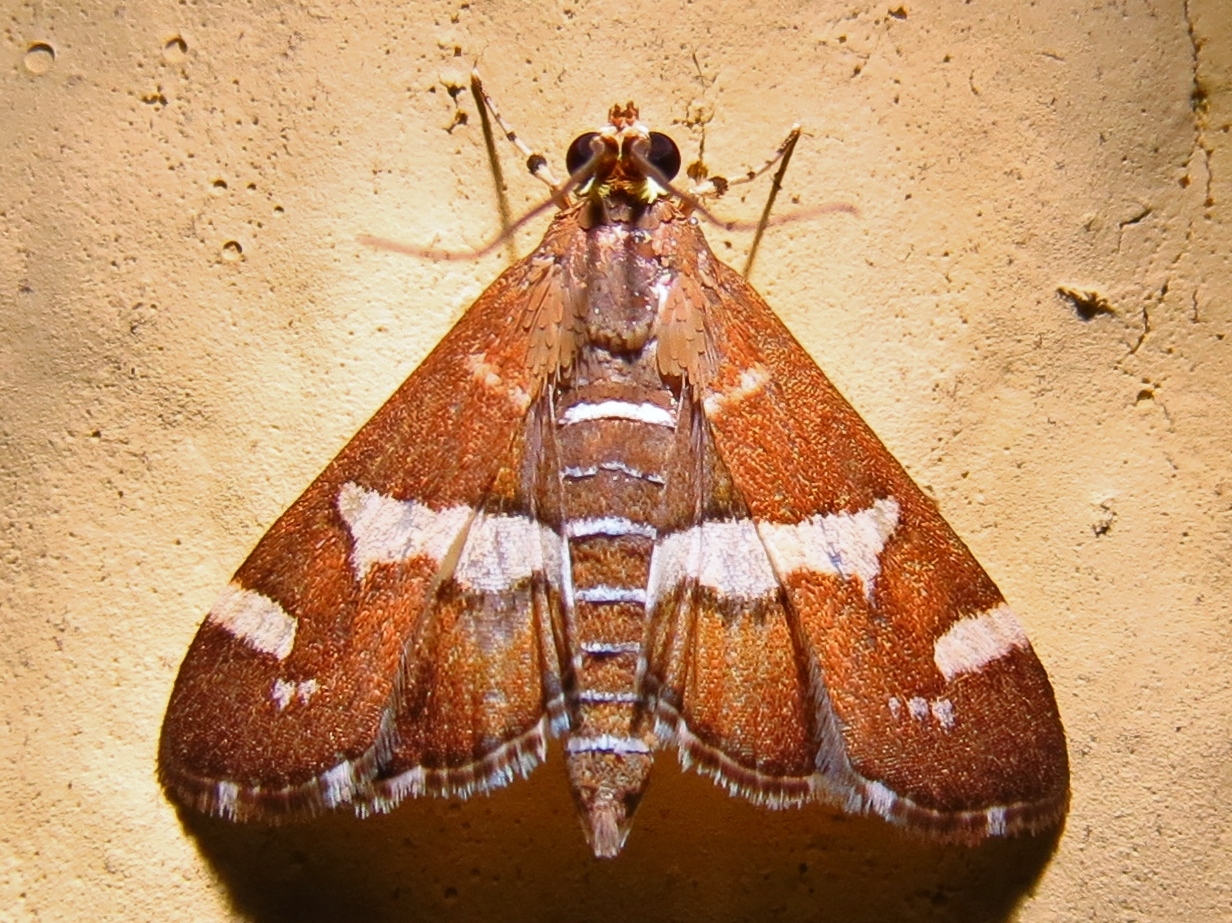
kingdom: Animalia
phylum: Arthropoda
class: Insecta
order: Lepidoptera
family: Crambidae
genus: Spoladea
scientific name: Spoladea recurvalis
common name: Beet webworm moth
